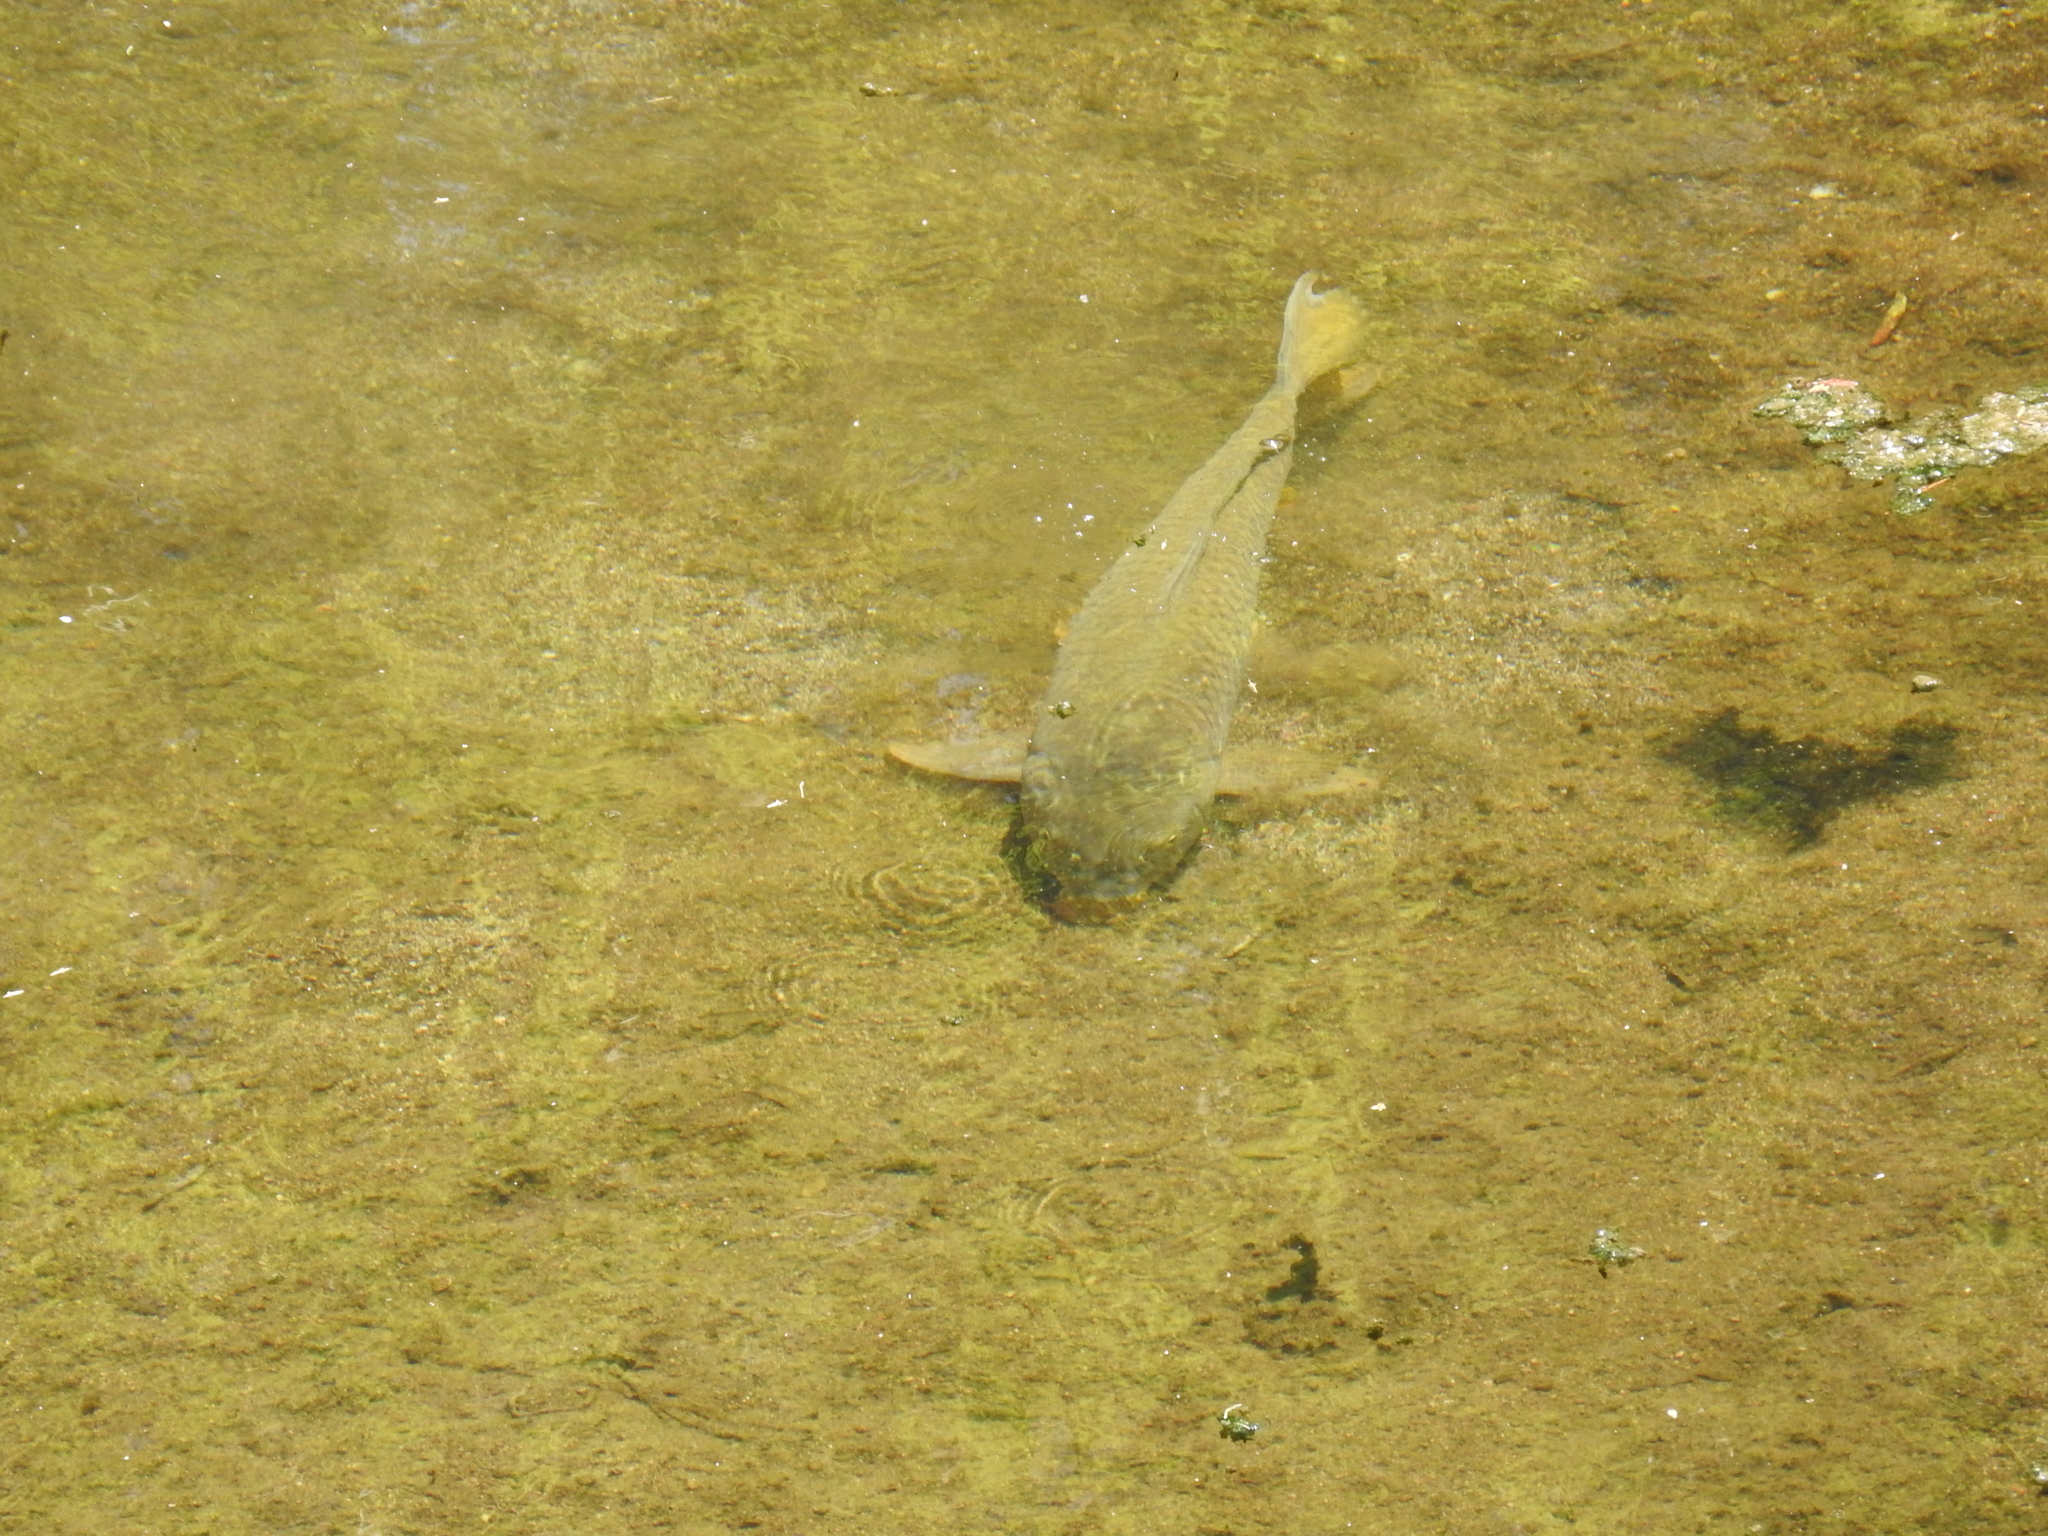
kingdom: Animalia
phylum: Chordata
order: Cypriniformes
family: Cyprinidae
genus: Cyprinus
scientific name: Cyprinus carpio
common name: Common carp
